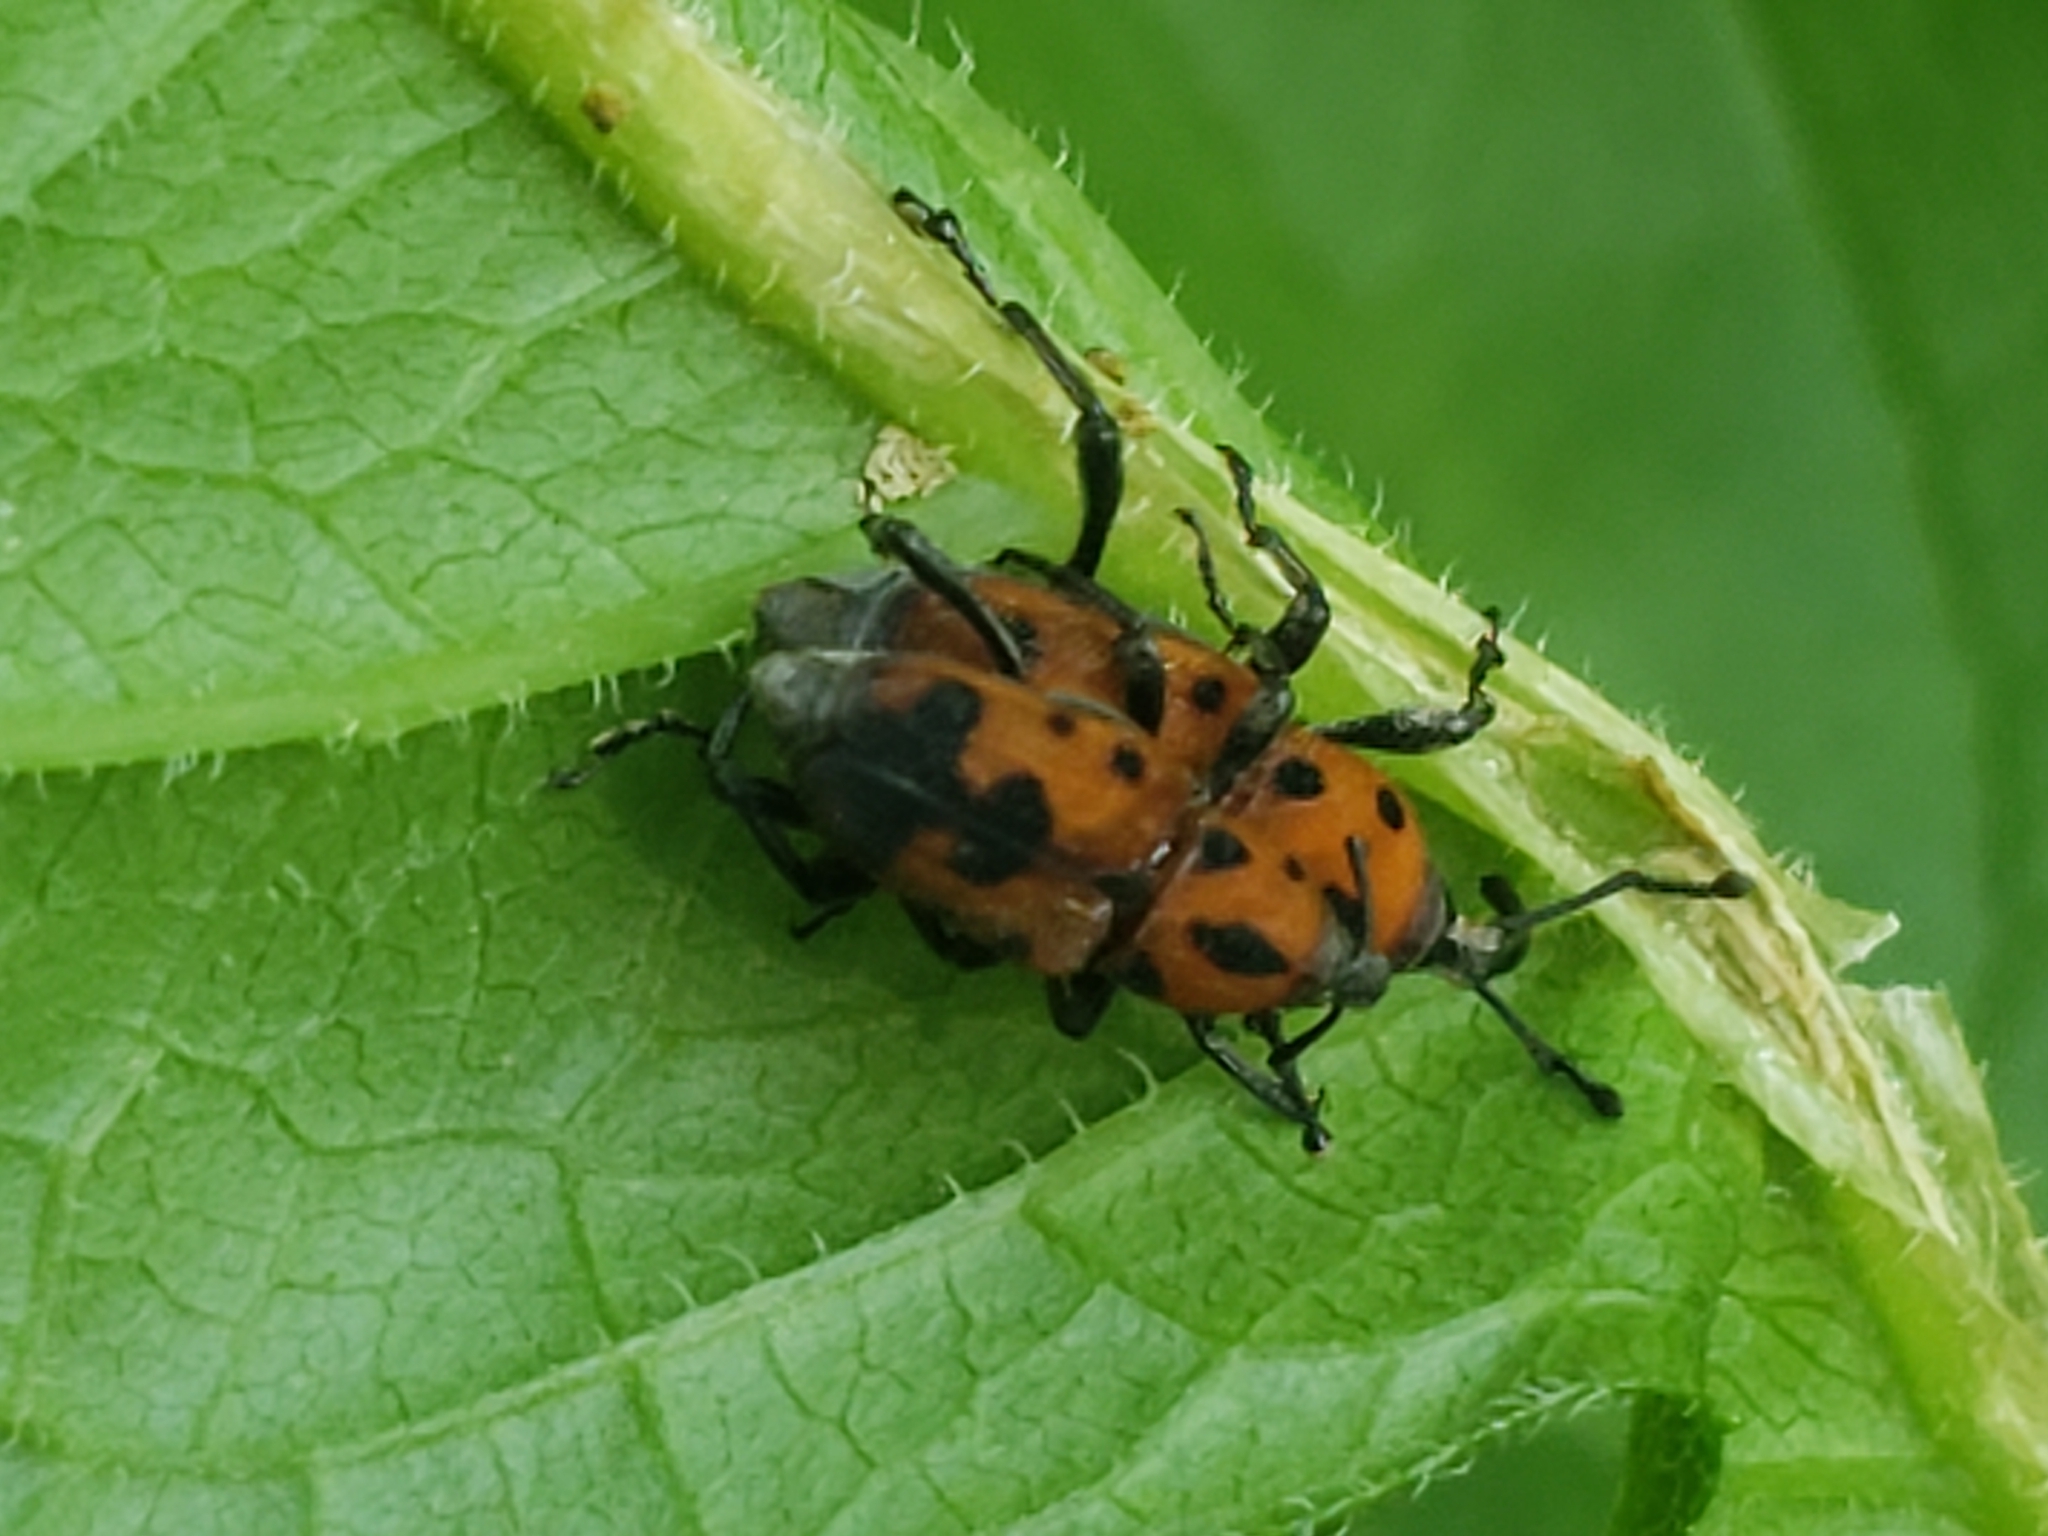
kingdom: Animalia
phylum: Arthropoda
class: Insecta
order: Coleoptera
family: Dryophthoridae
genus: Rhodobaenus
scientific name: Rhodobaenus quinquepunctatus
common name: Cocklebur weevil
